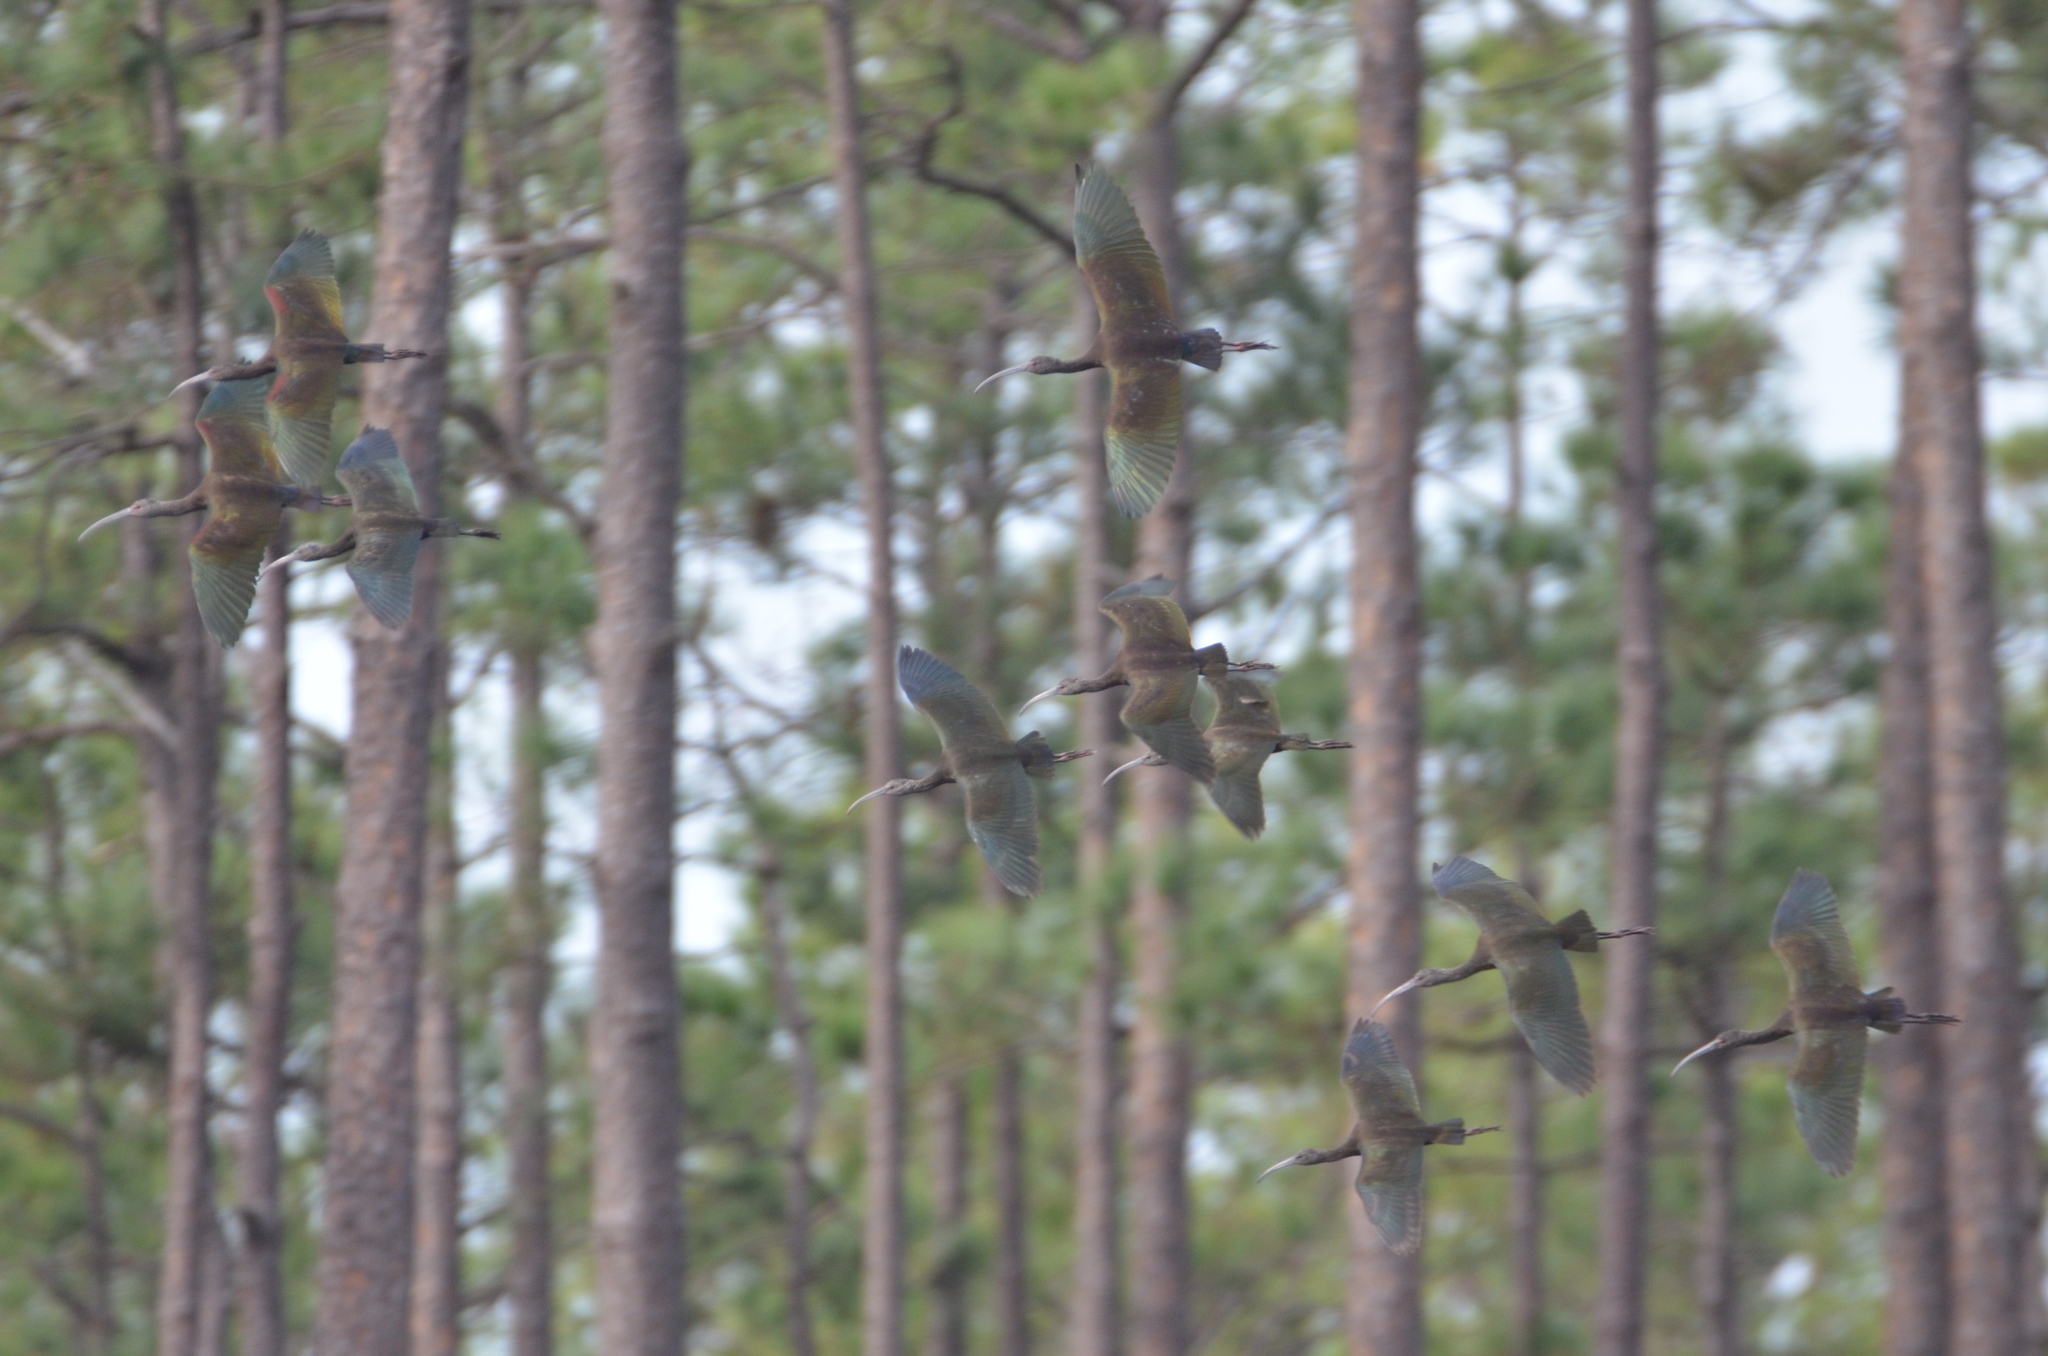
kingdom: Animalia
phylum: Chordata
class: Aves
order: Pelecaniformes
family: Threskiornithidae
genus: Plegadis
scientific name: Plegadis chihi
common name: White-faced ibis
